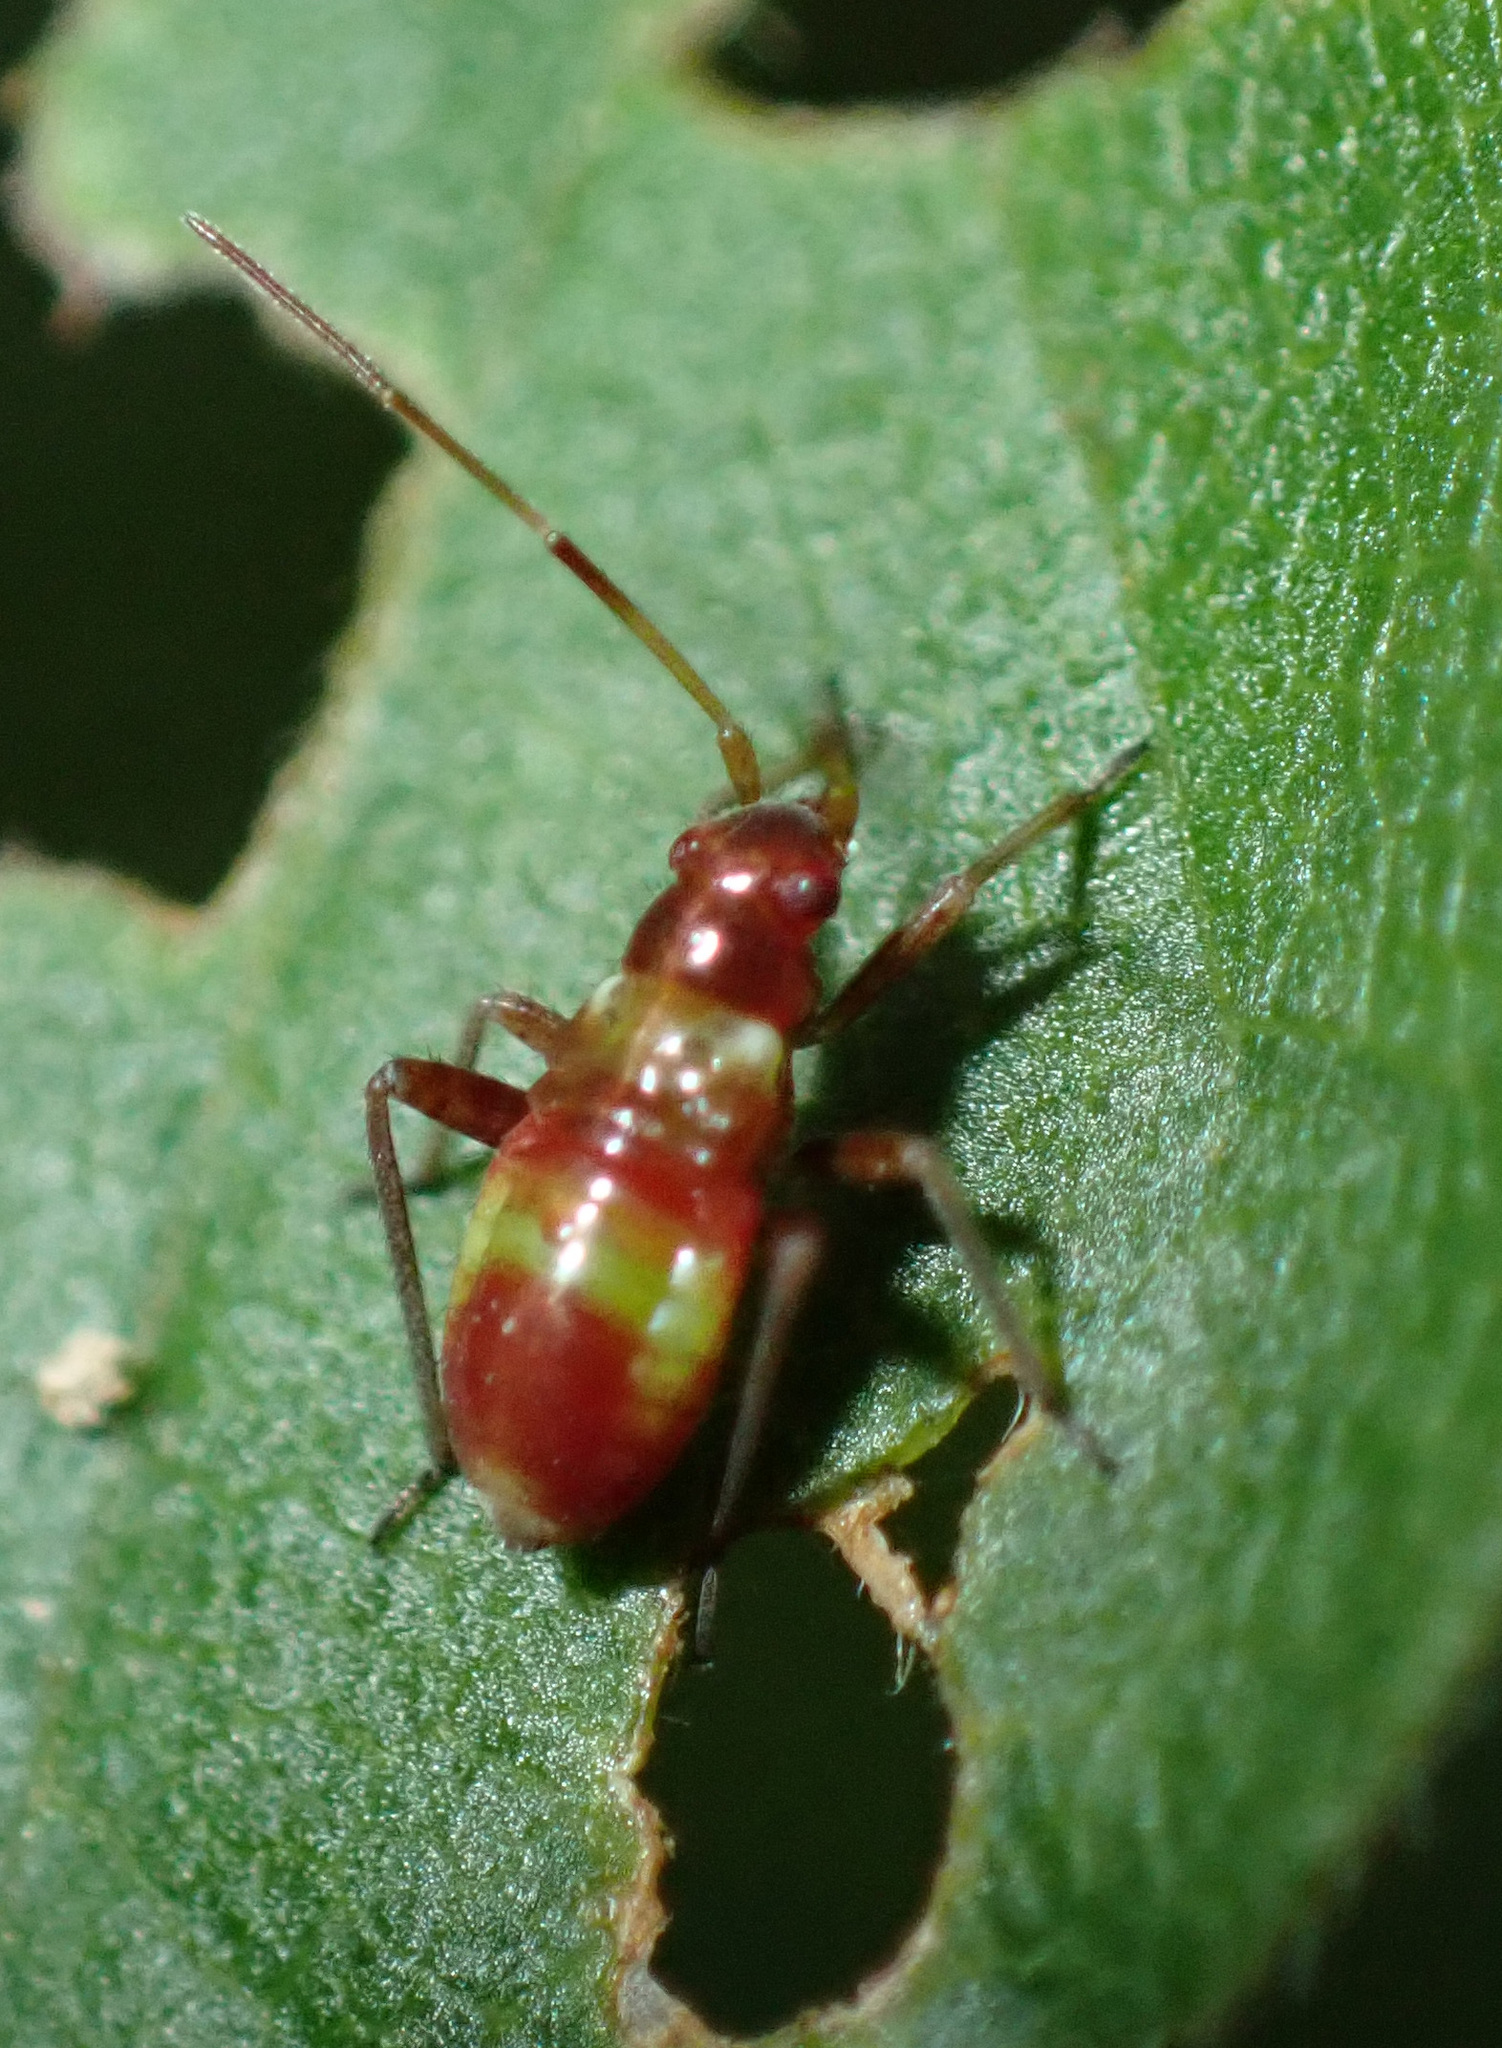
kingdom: Animalia
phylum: Arthropoda
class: Insecta
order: Hemiptera
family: Miridae
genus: Closterotomus
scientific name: Closterotomus fulvomaculatus
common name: Spotted plant bug
